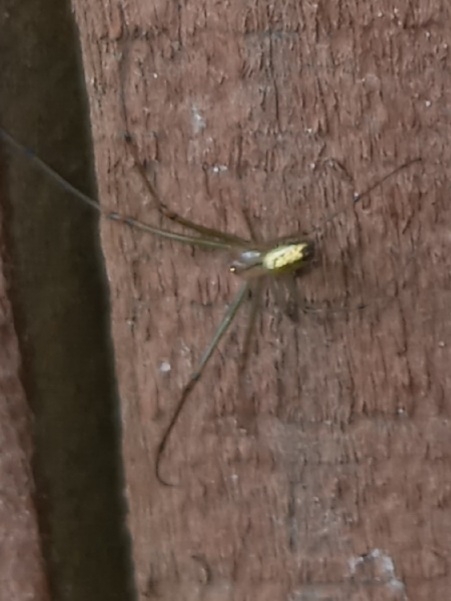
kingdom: Animalia
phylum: Arthropoda
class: Arachnida
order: Araneae
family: Tetragnathidae
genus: Leucauge
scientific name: Leucauge venusta
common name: Longjawed orb weavers
